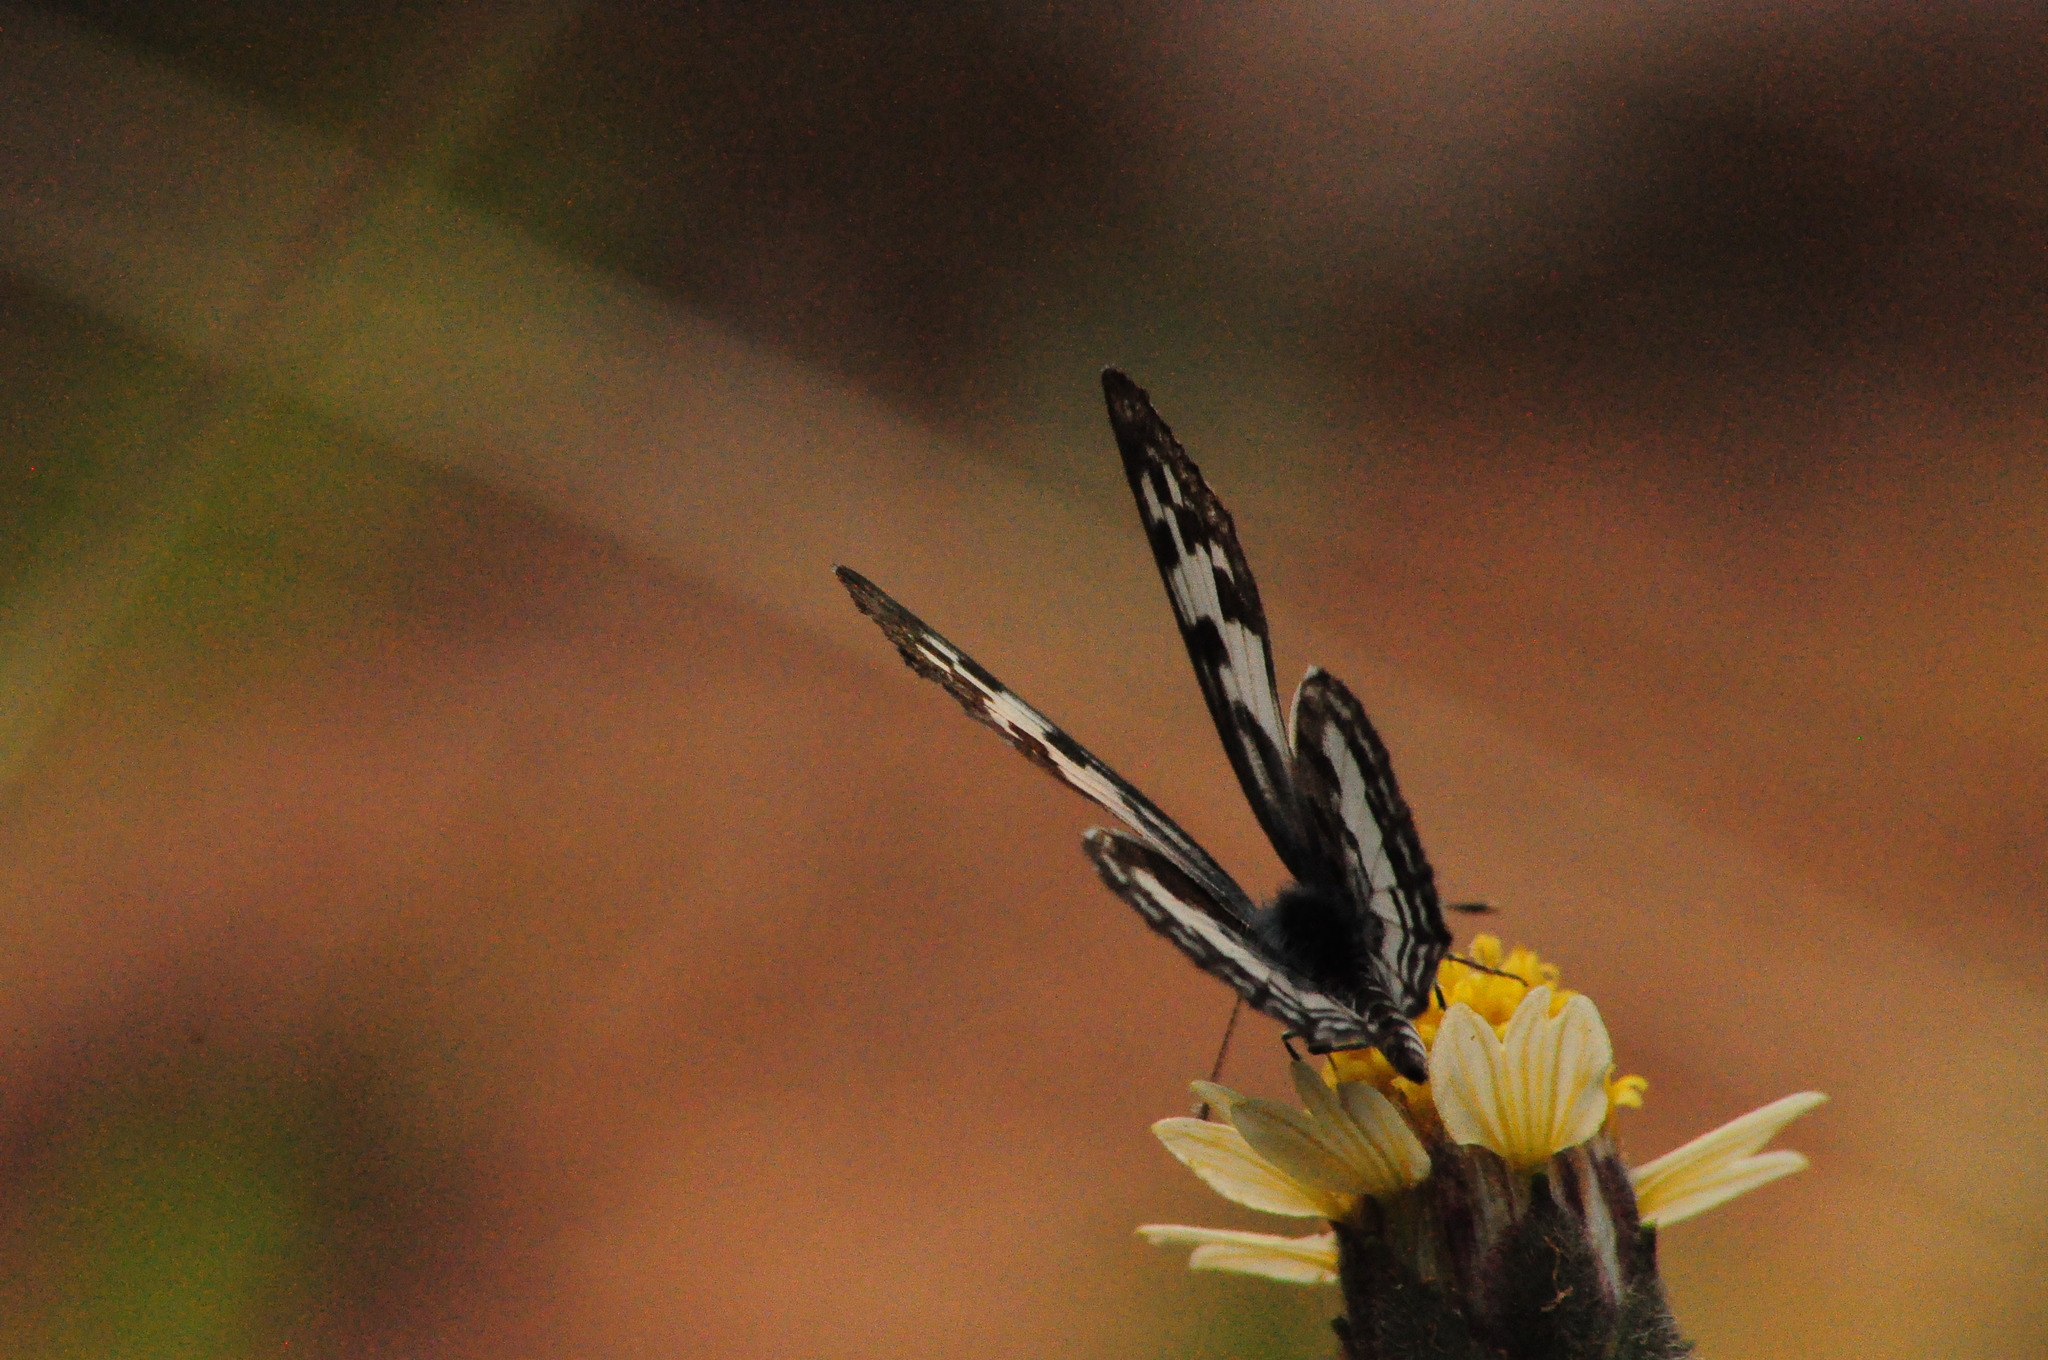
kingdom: Animalia
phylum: Arthropoda
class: Insecta
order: Lepidoptera
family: Lycaenidae
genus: Castalius
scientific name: Castalius rosimon
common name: Common pierrot
